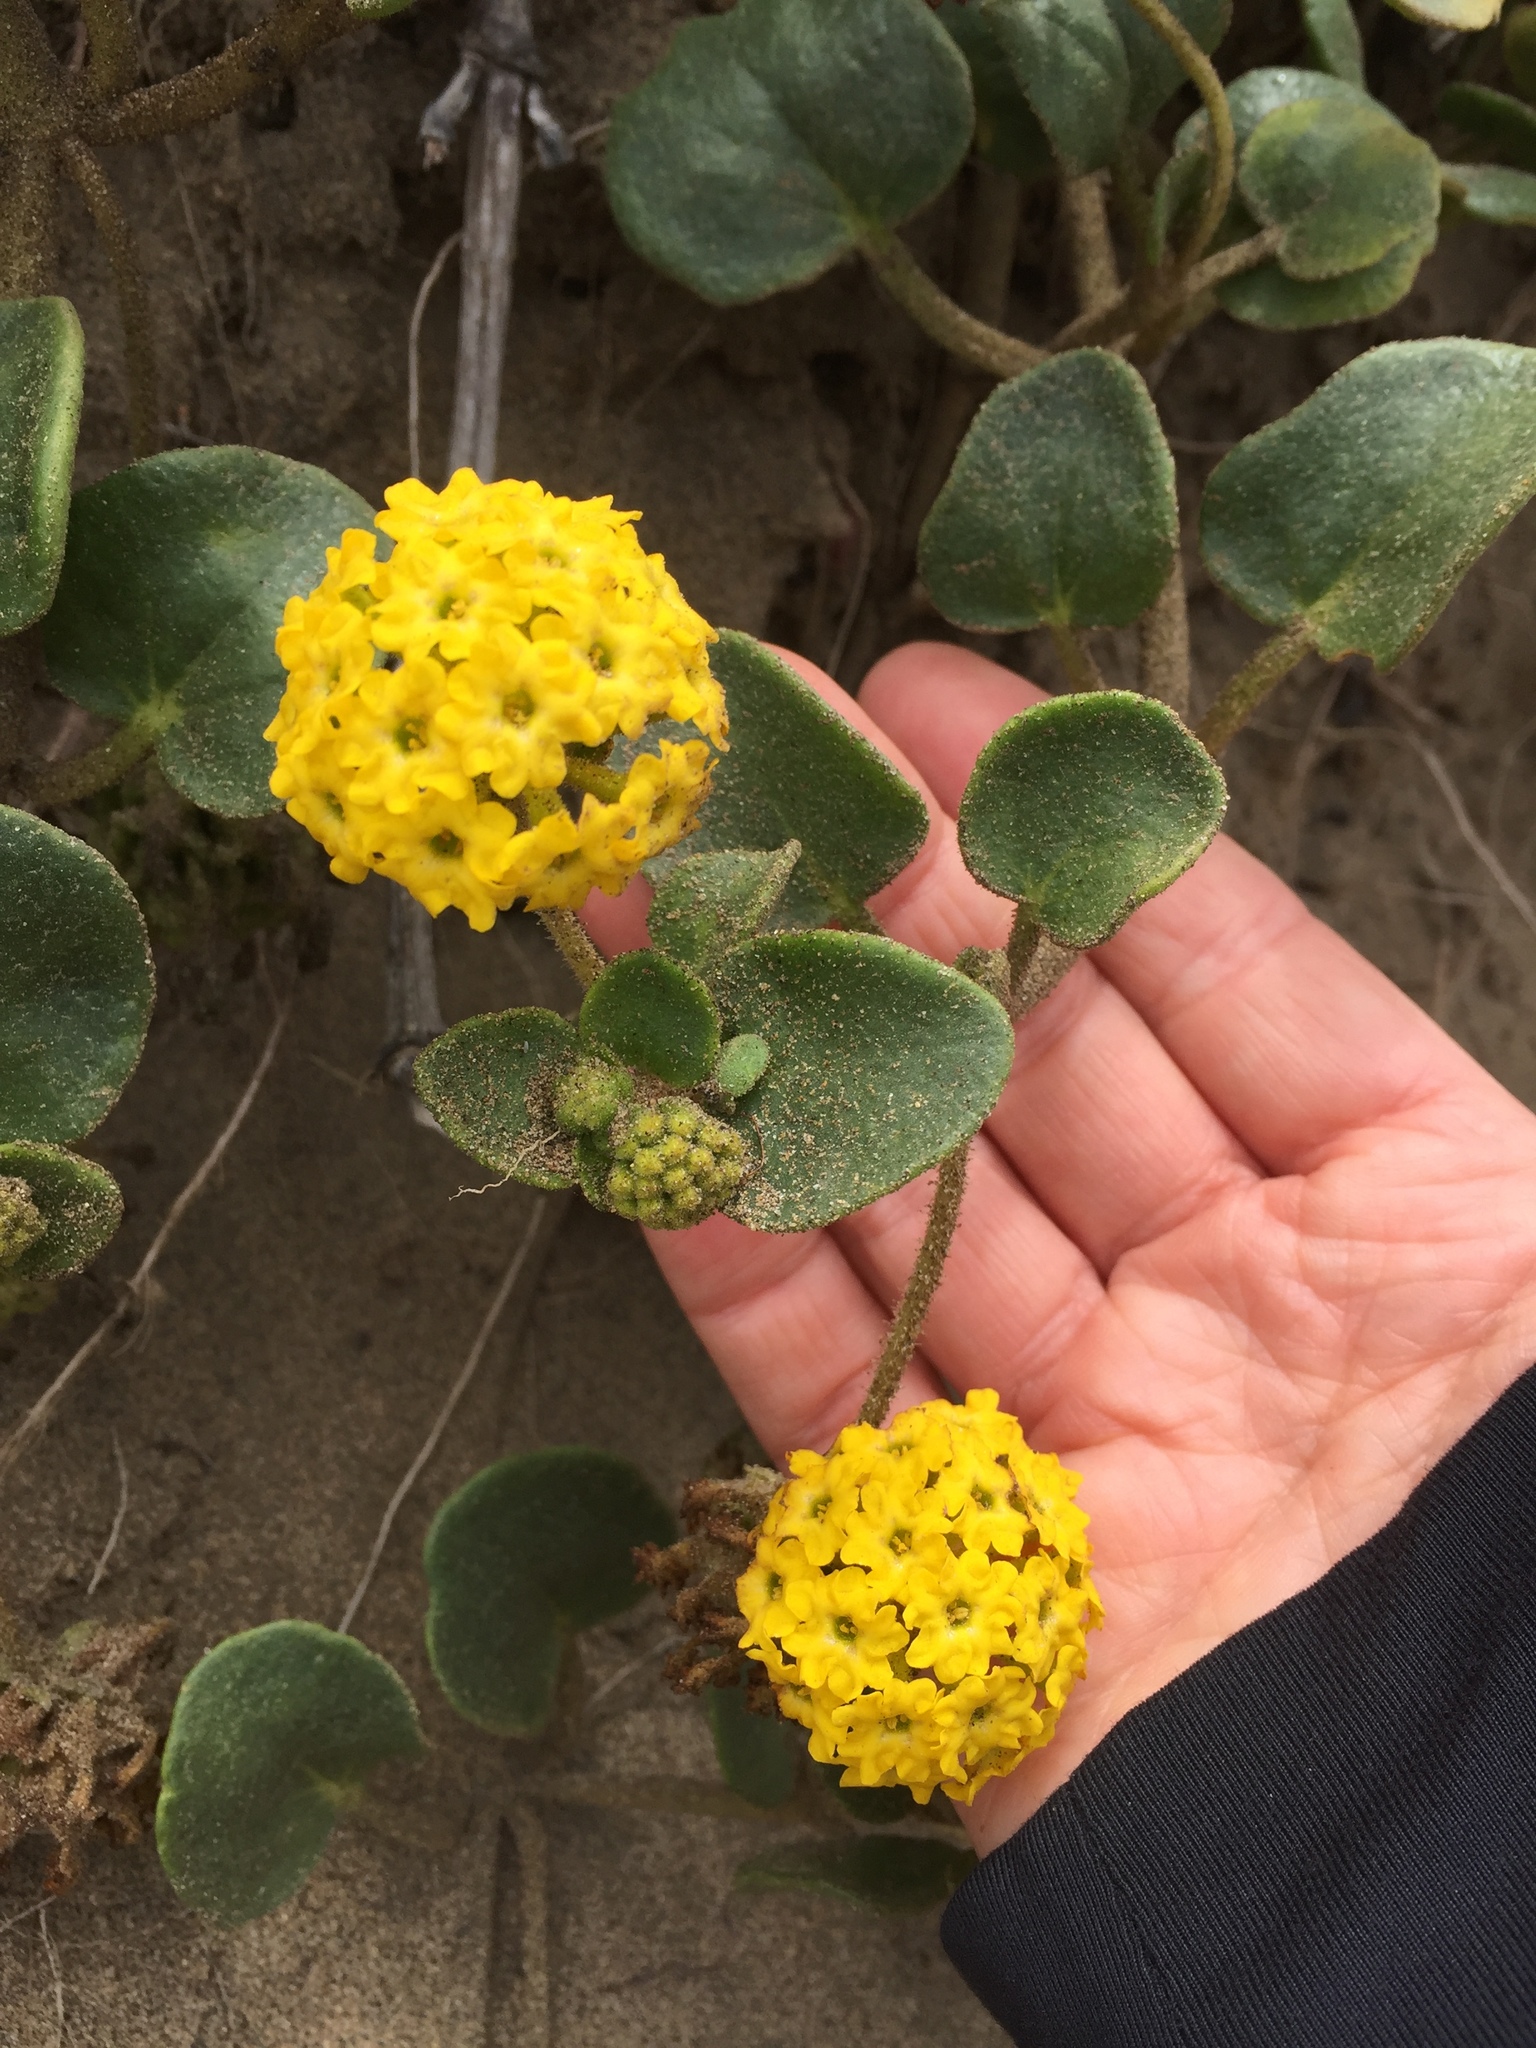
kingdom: Plantae
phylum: Tracheophyta
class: Magnoliopsida
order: Caryophyllales
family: Nyctaginaceae
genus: Abronia
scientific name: Abronia latifolia
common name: Yellow sand-verbena
